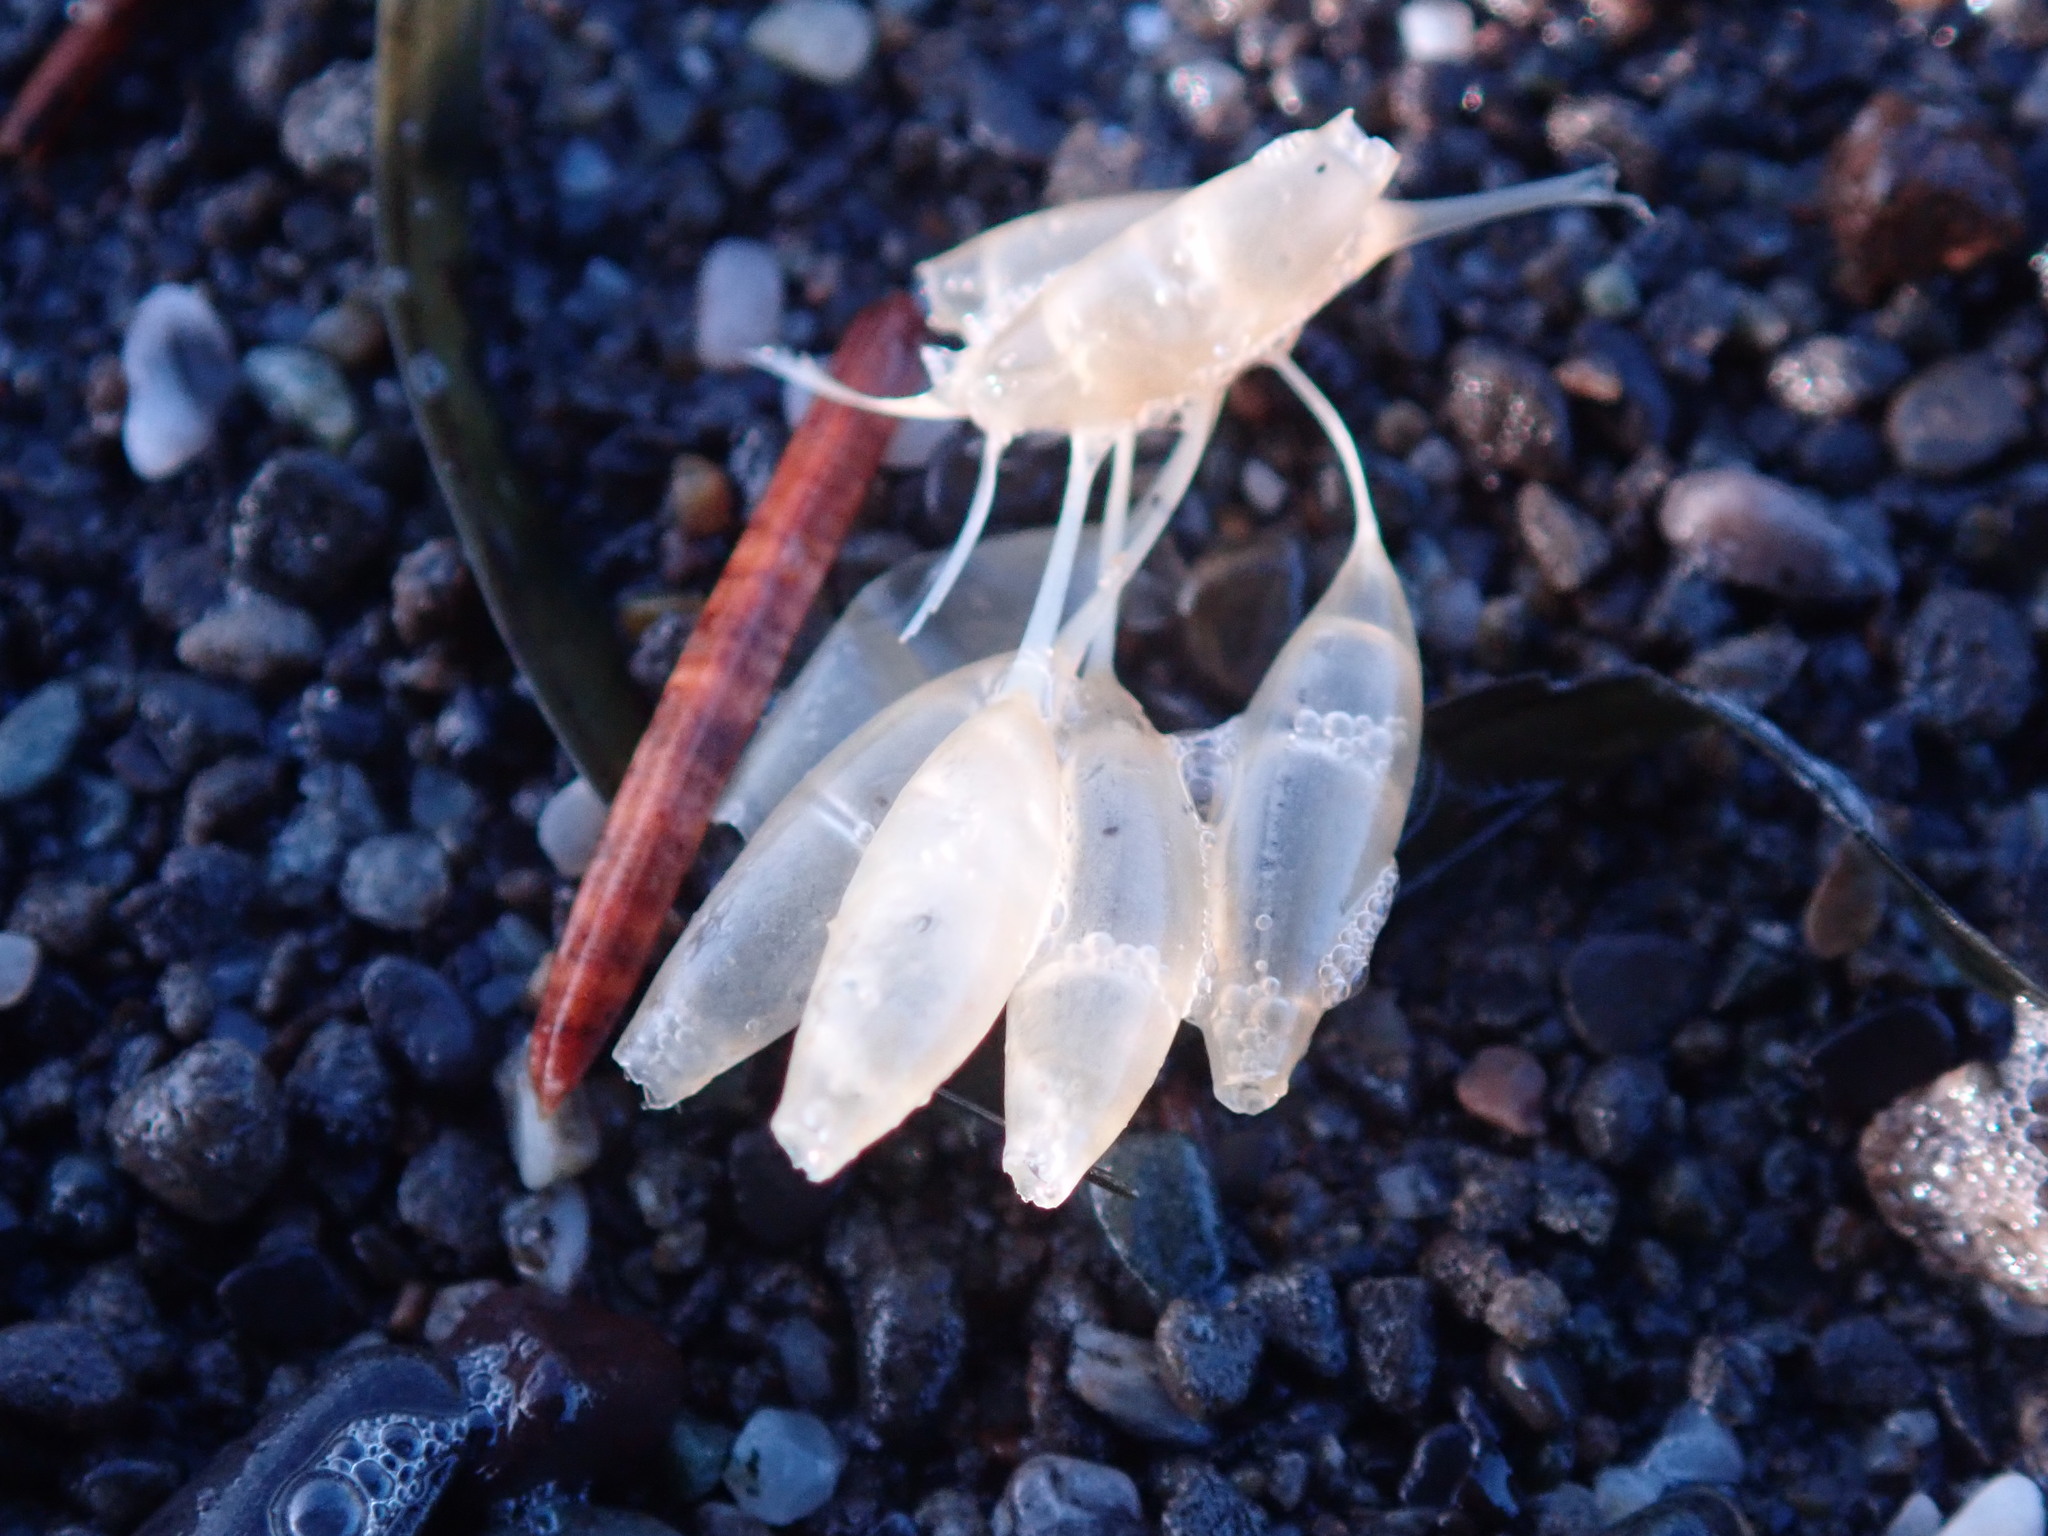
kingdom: Animalia
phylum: Mollusca
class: Gastropoda
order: Neogastropoda
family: Muricidae
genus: Nucella
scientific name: Nucella lamellosa
